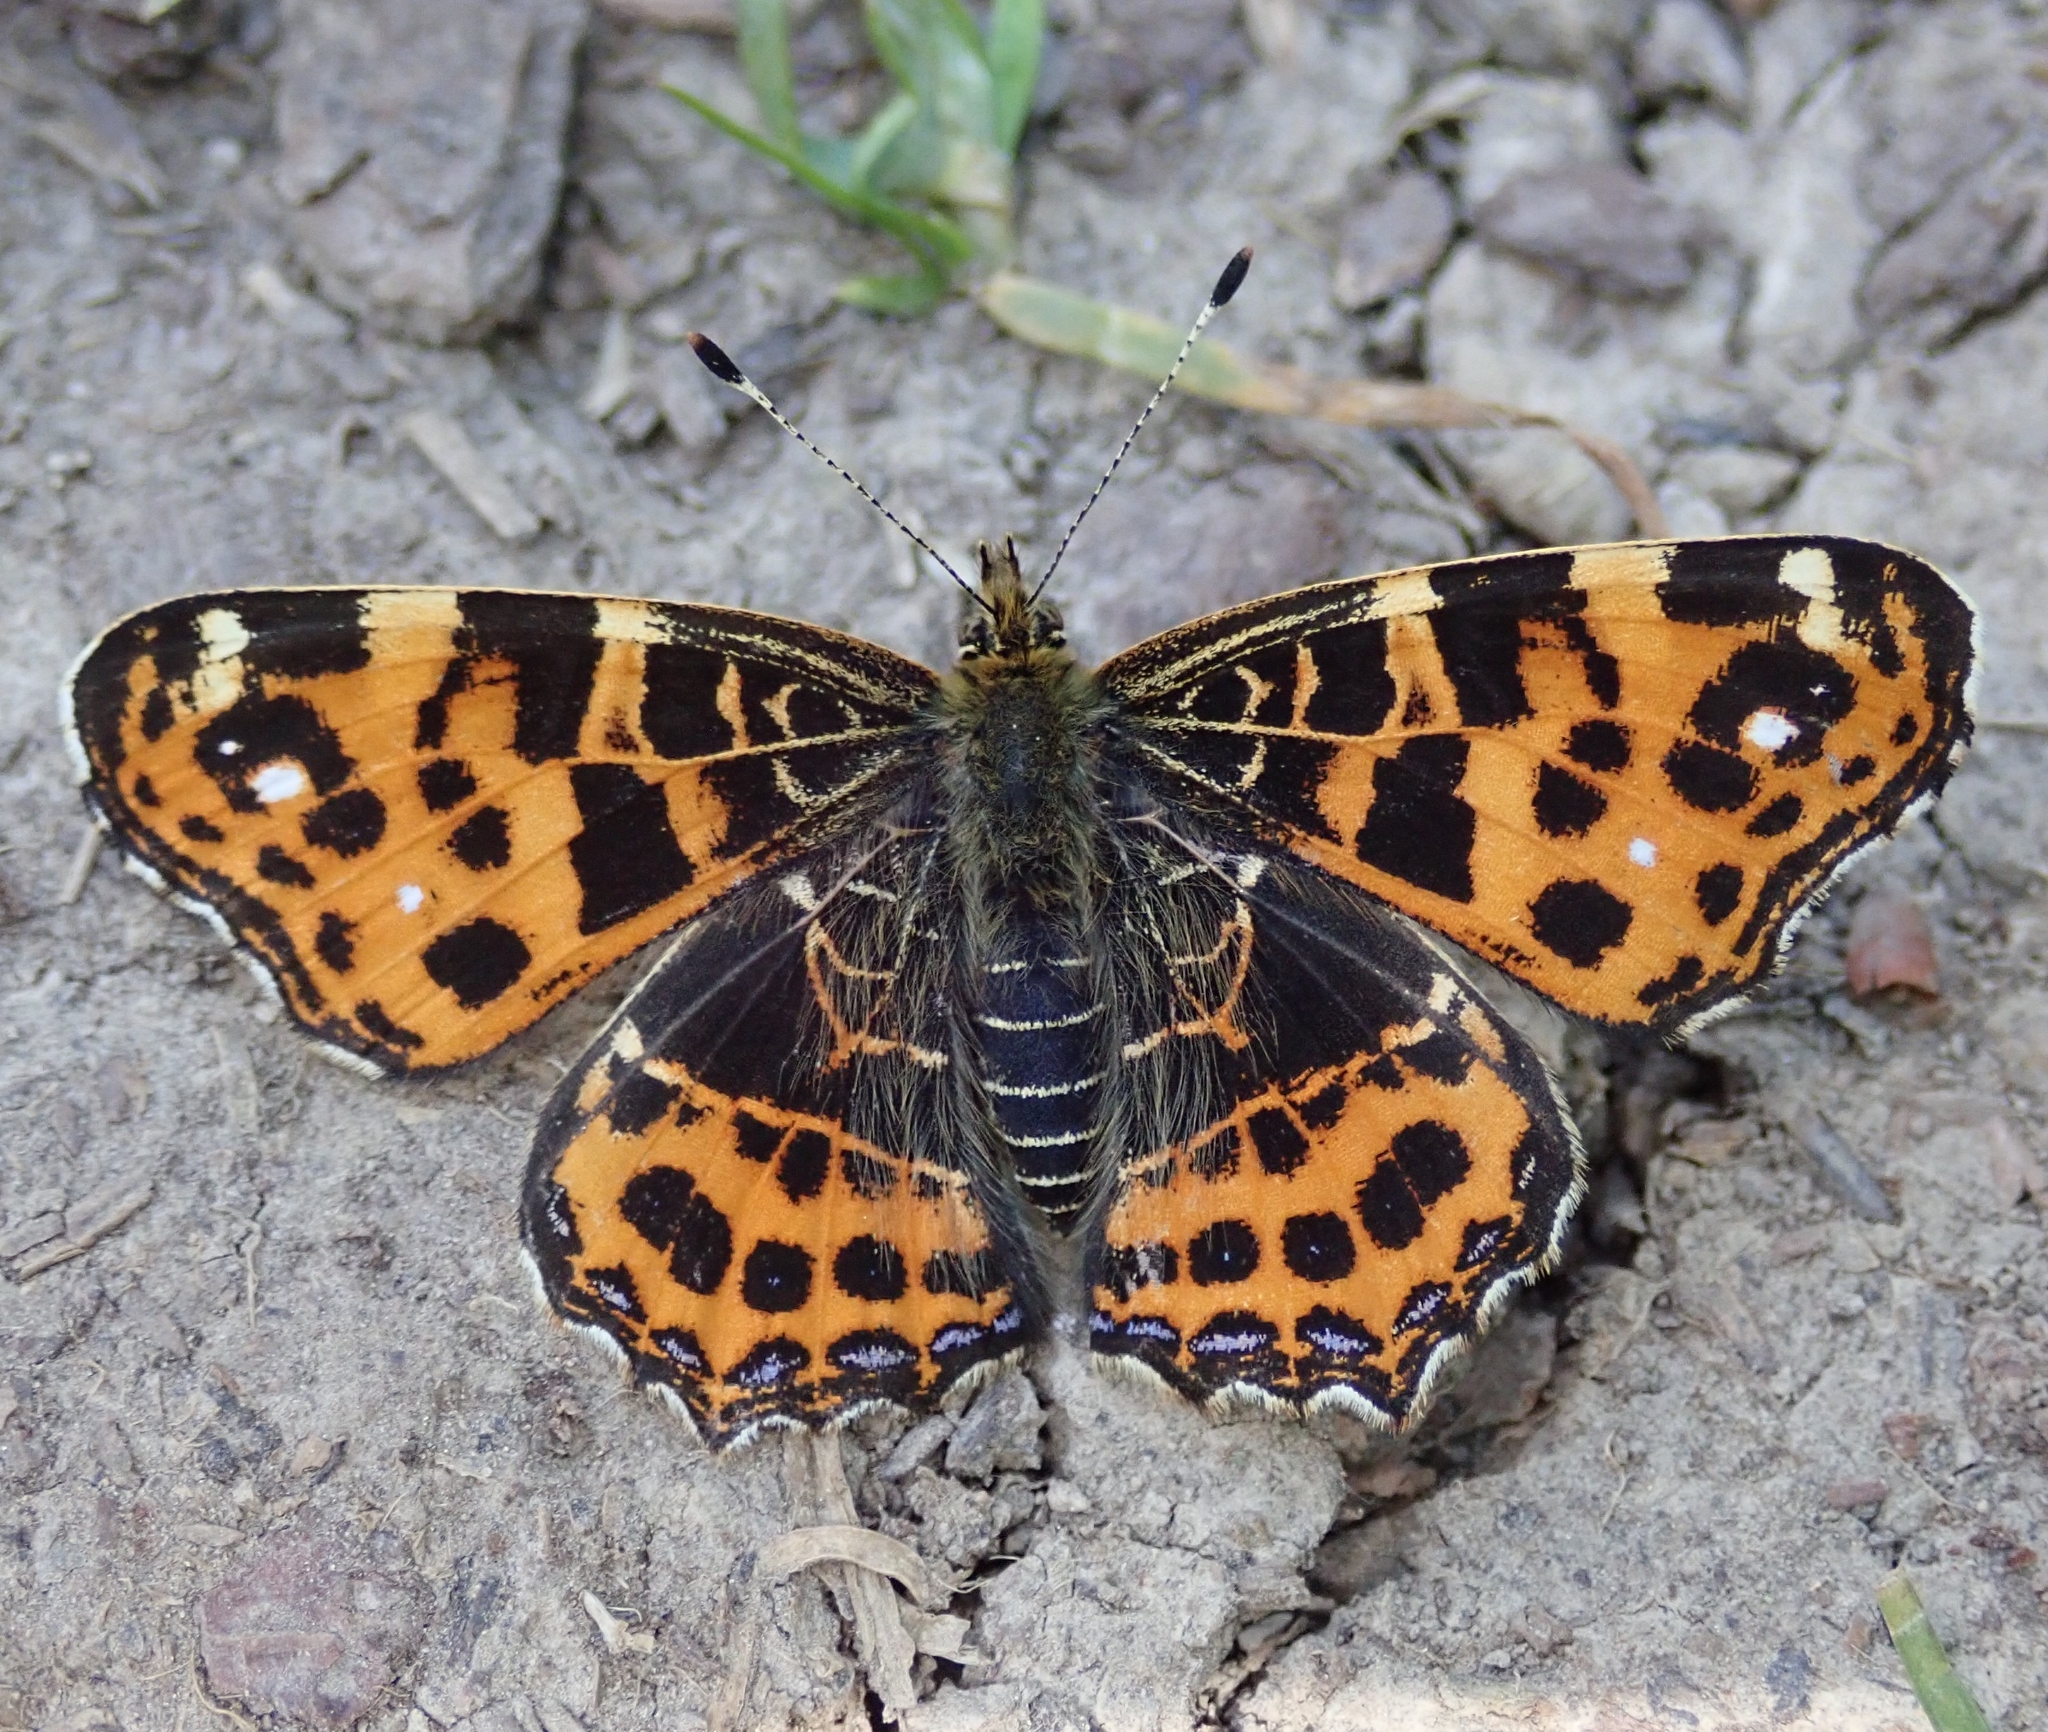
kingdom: Animalia
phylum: Arthropoda
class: Insecta
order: Lepidoptera
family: Nymphalidae
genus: Araschnia
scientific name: Araschnia levana
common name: Map butterfly
